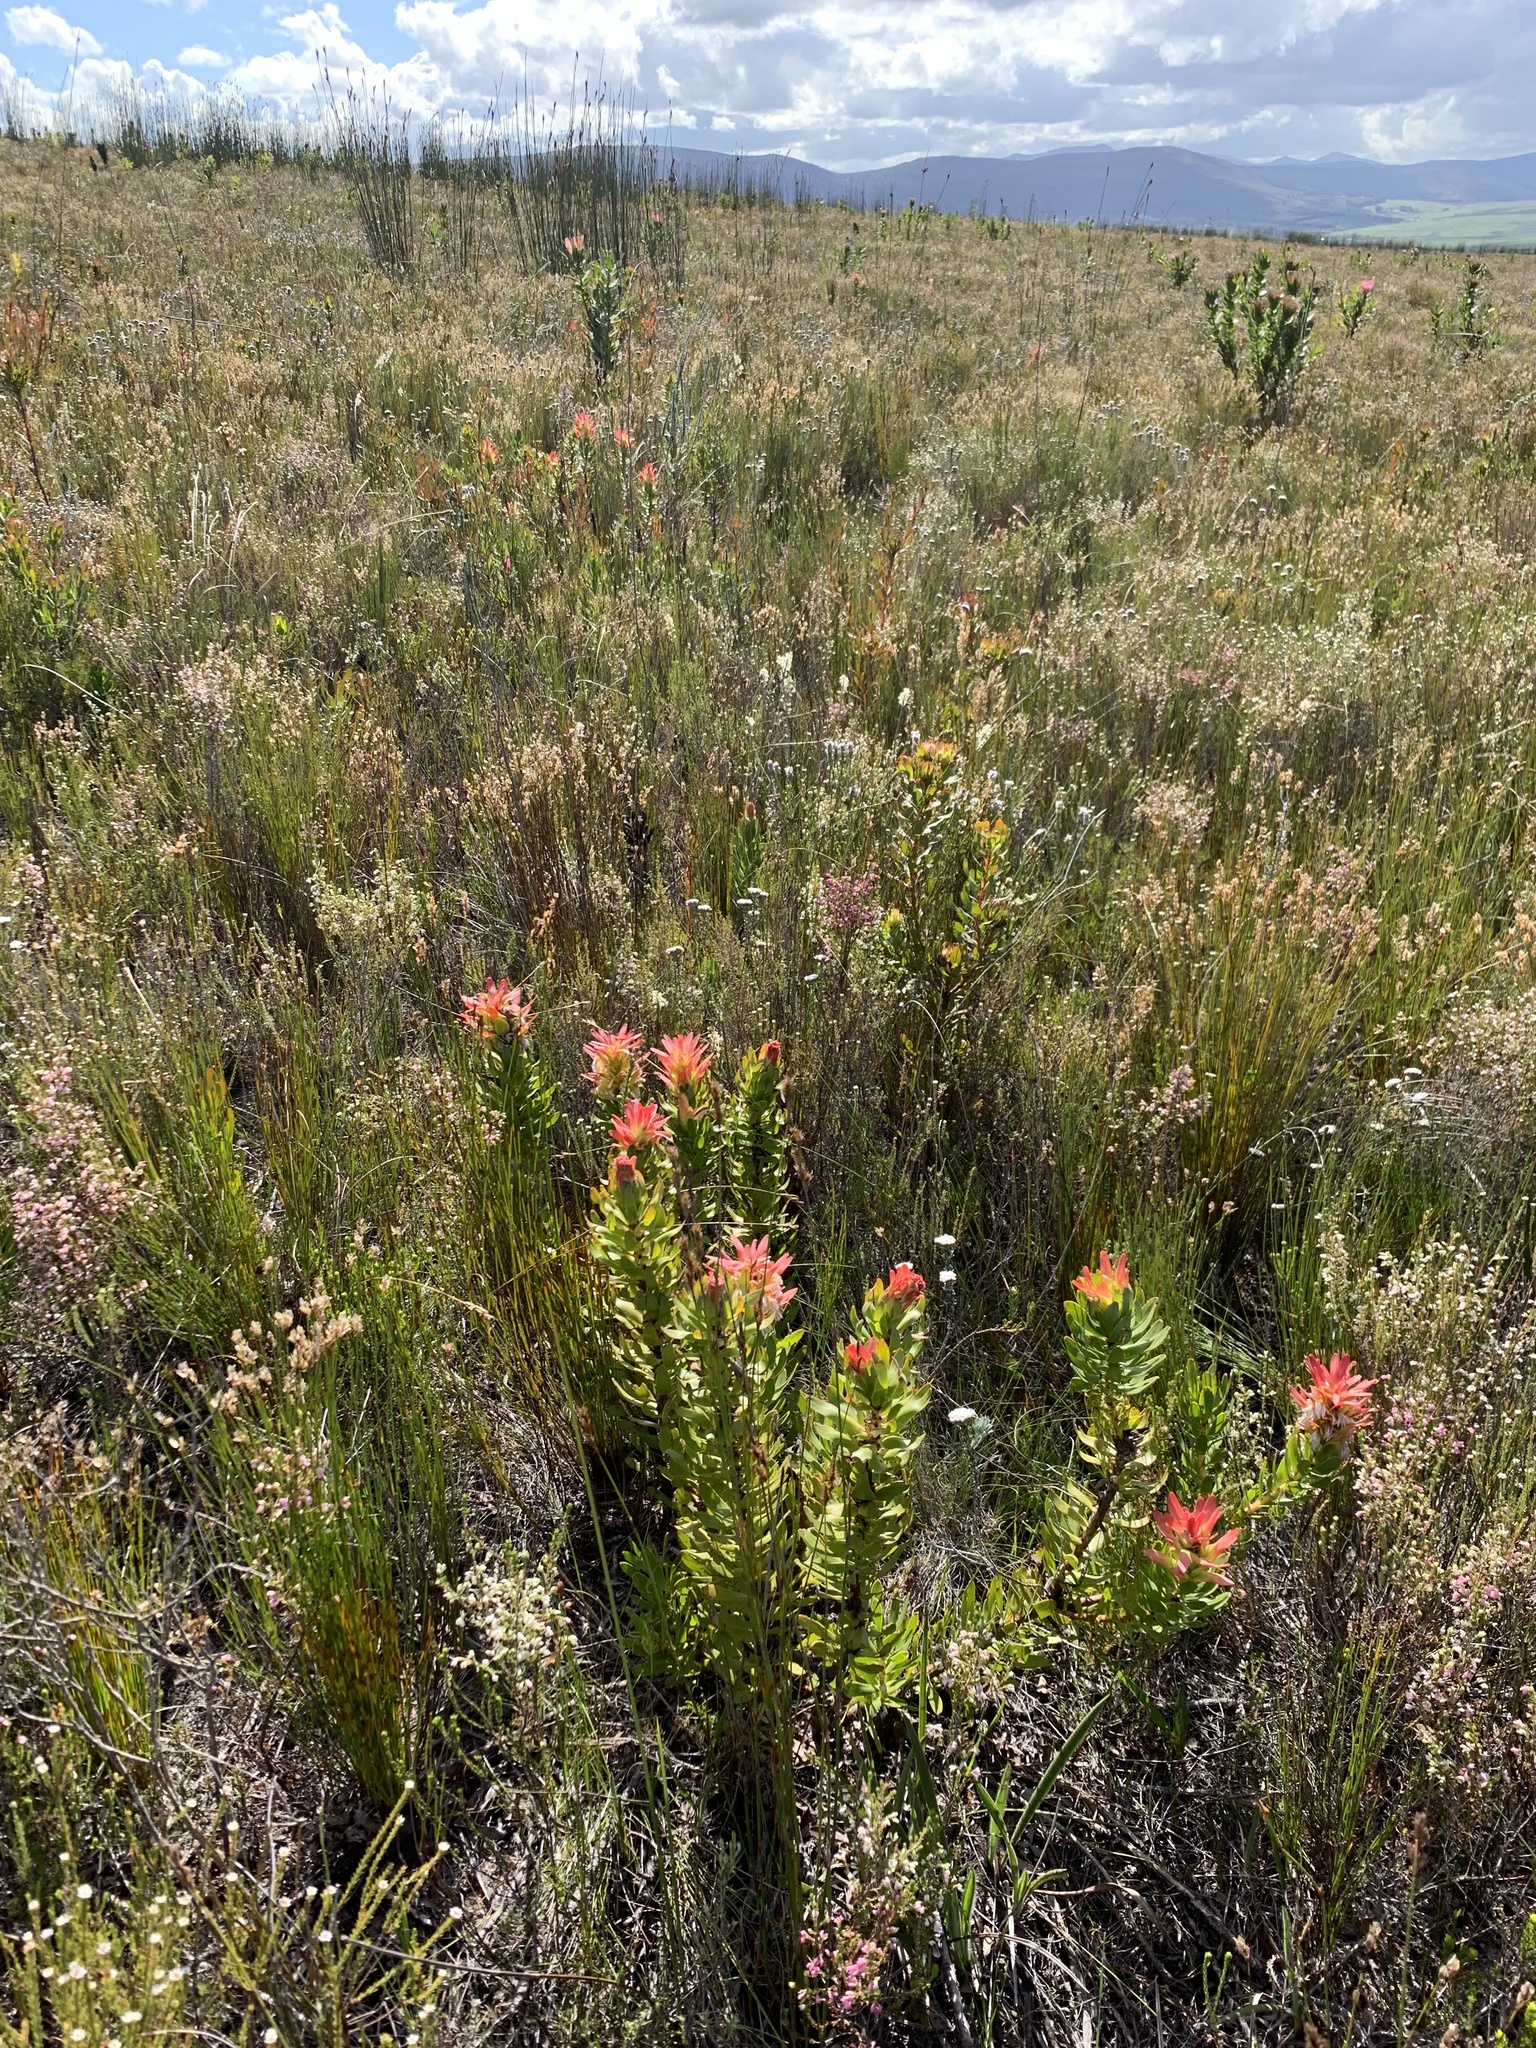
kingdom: Plantae
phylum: Tracheophyta
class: Magnoliopsida
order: Proteales
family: Proteaceae
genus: Mimetes
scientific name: Mimetes cucullatus
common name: Common pagoda
